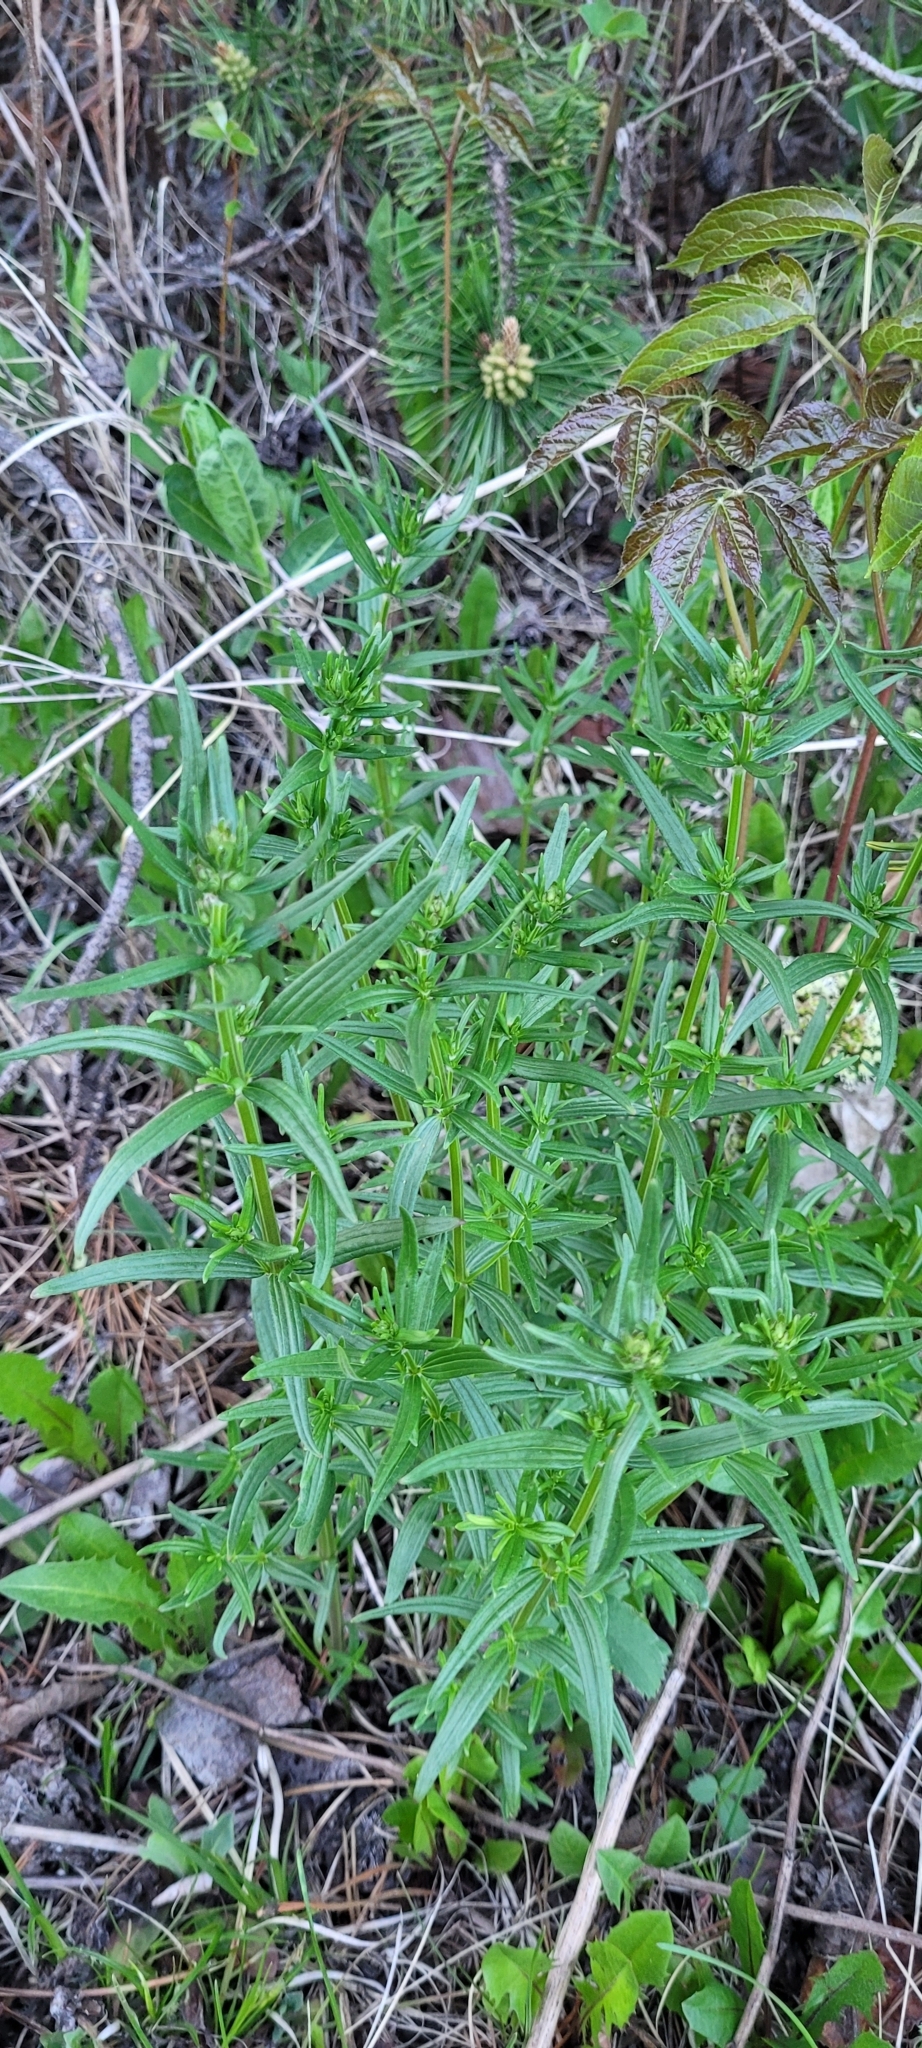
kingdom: Plantae
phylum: Tracheophyta
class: Magnoliopsida
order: Gentianales
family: Rubiaceae
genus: Galium
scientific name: Galium boreale
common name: Northern bedstraw
